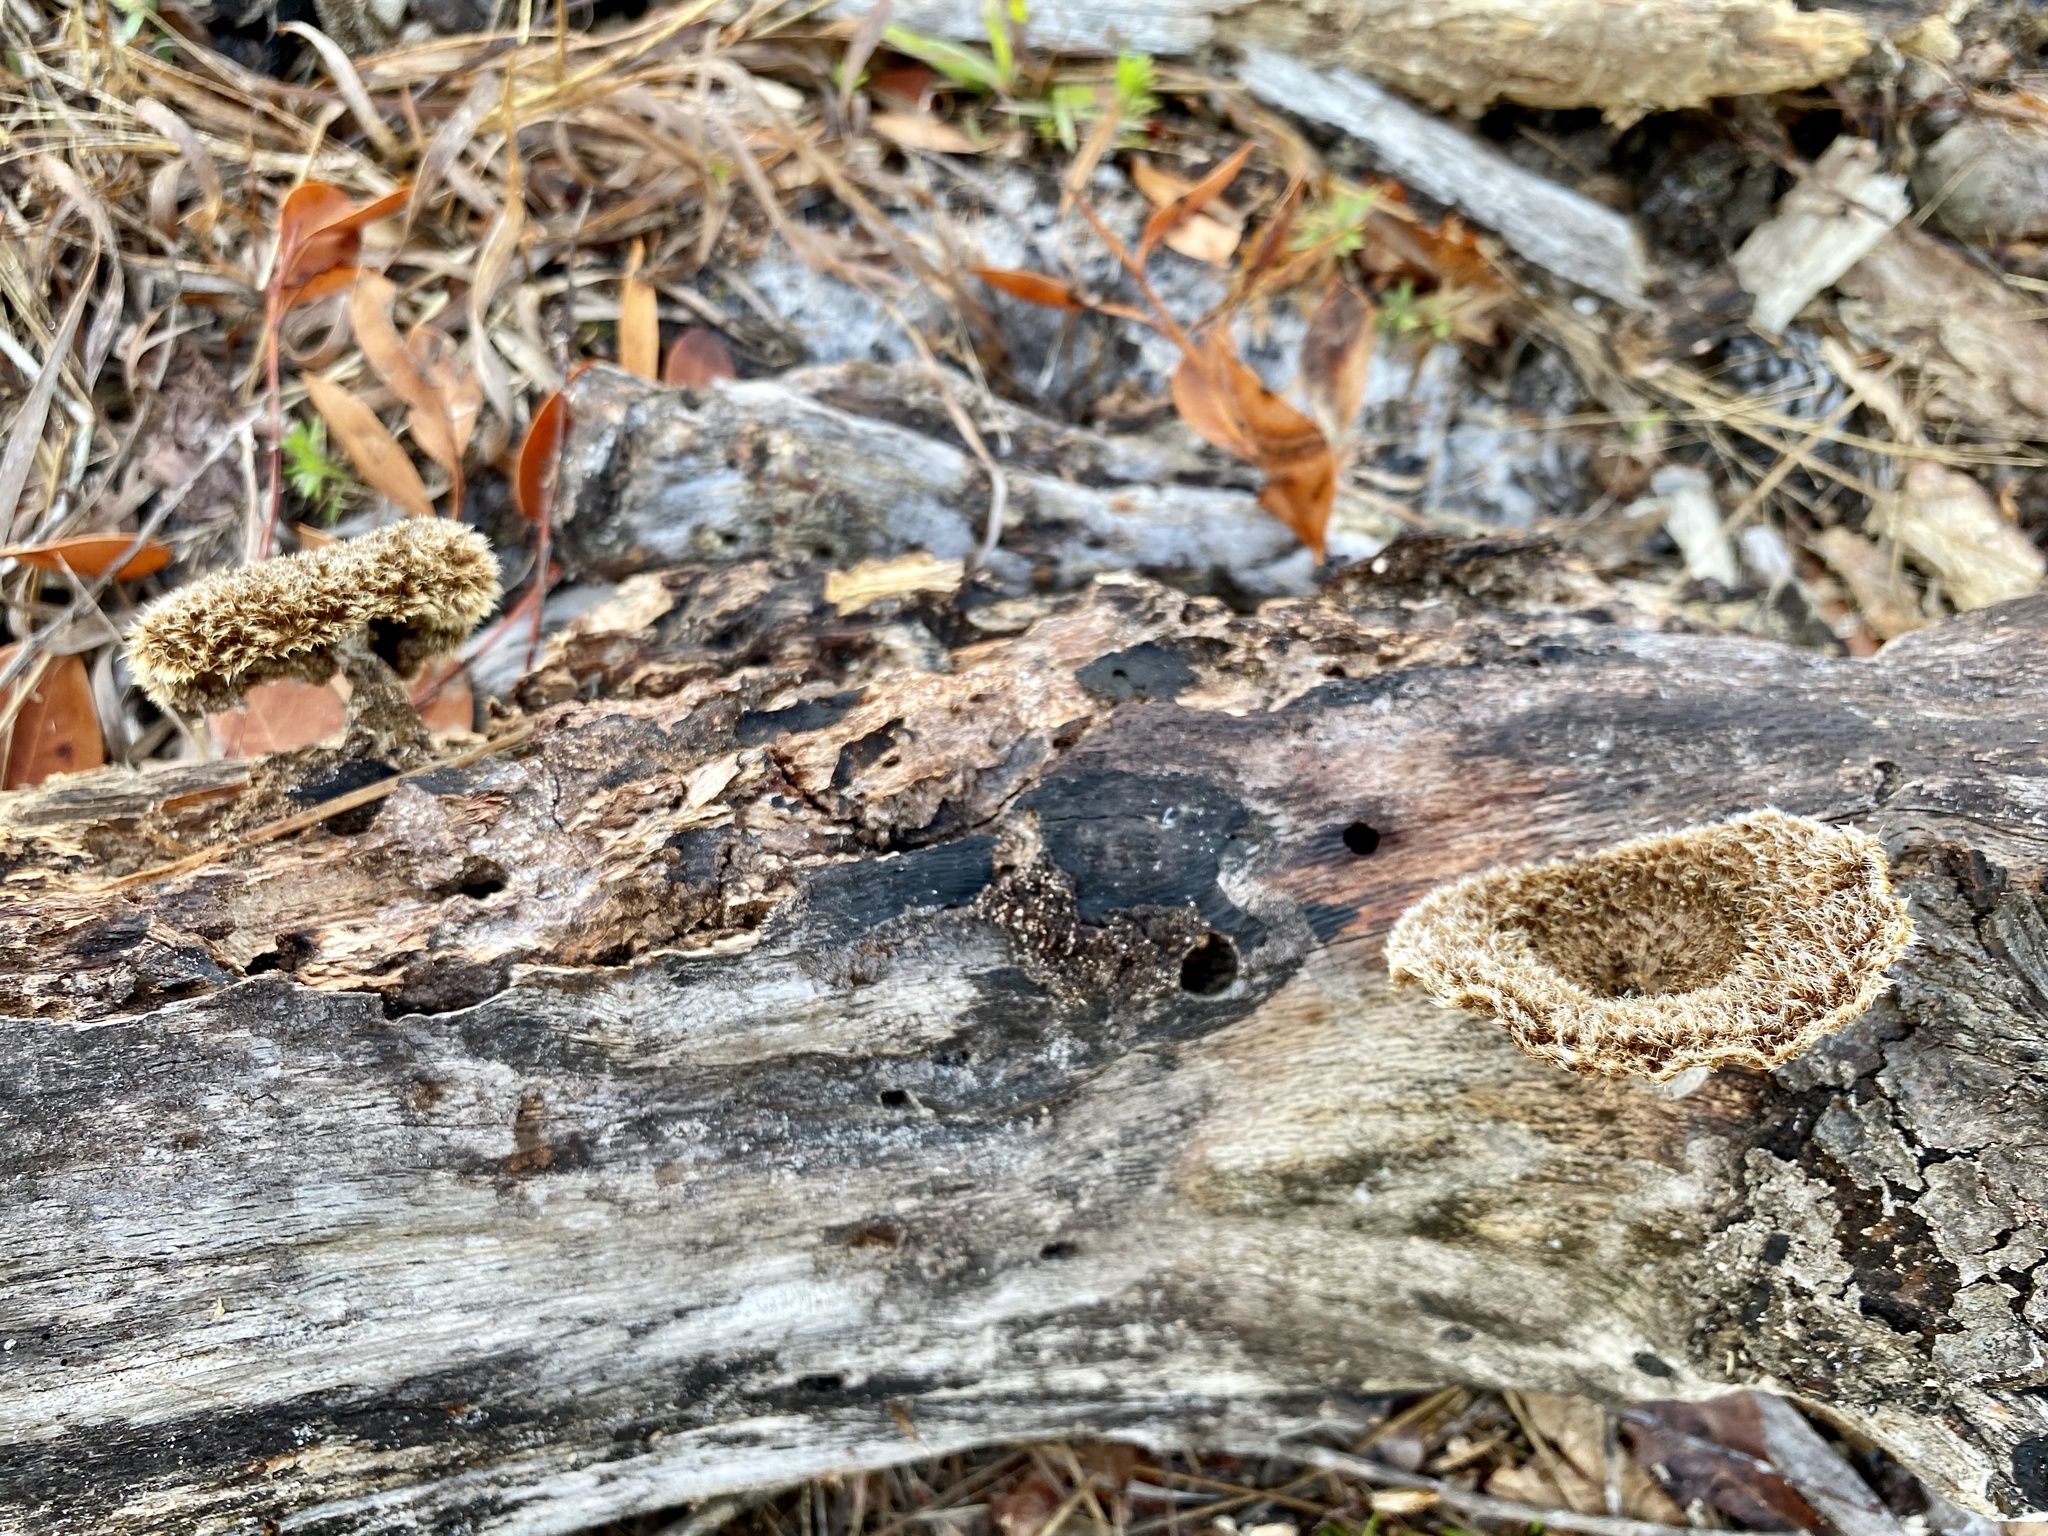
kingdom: Fungi
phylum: Basidiomycota
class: Agaricomycetes
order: Polyporales
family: Polyporaceae
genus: Lentinus
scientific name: Lentinus crinitus
